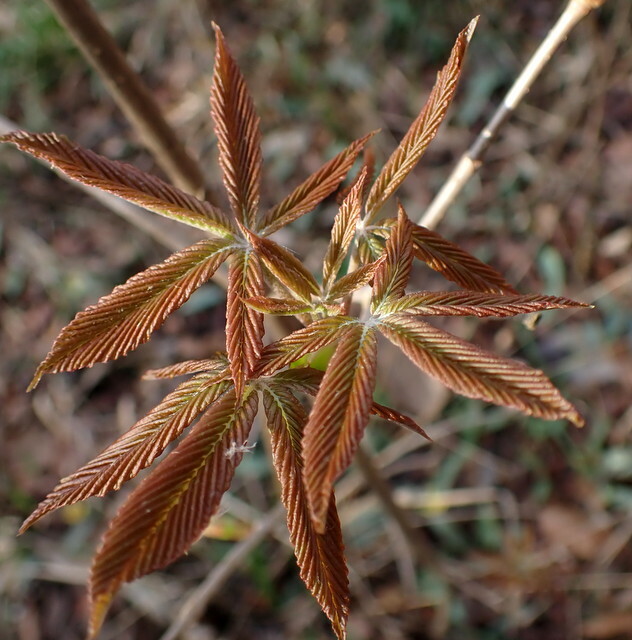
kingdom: Plantae
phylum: Tracheophyta
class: Magnoliopsida
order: Sapindales
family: Sapindaceae
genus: Aesculus
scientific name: Aesculus pavia
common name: Red buckeye
